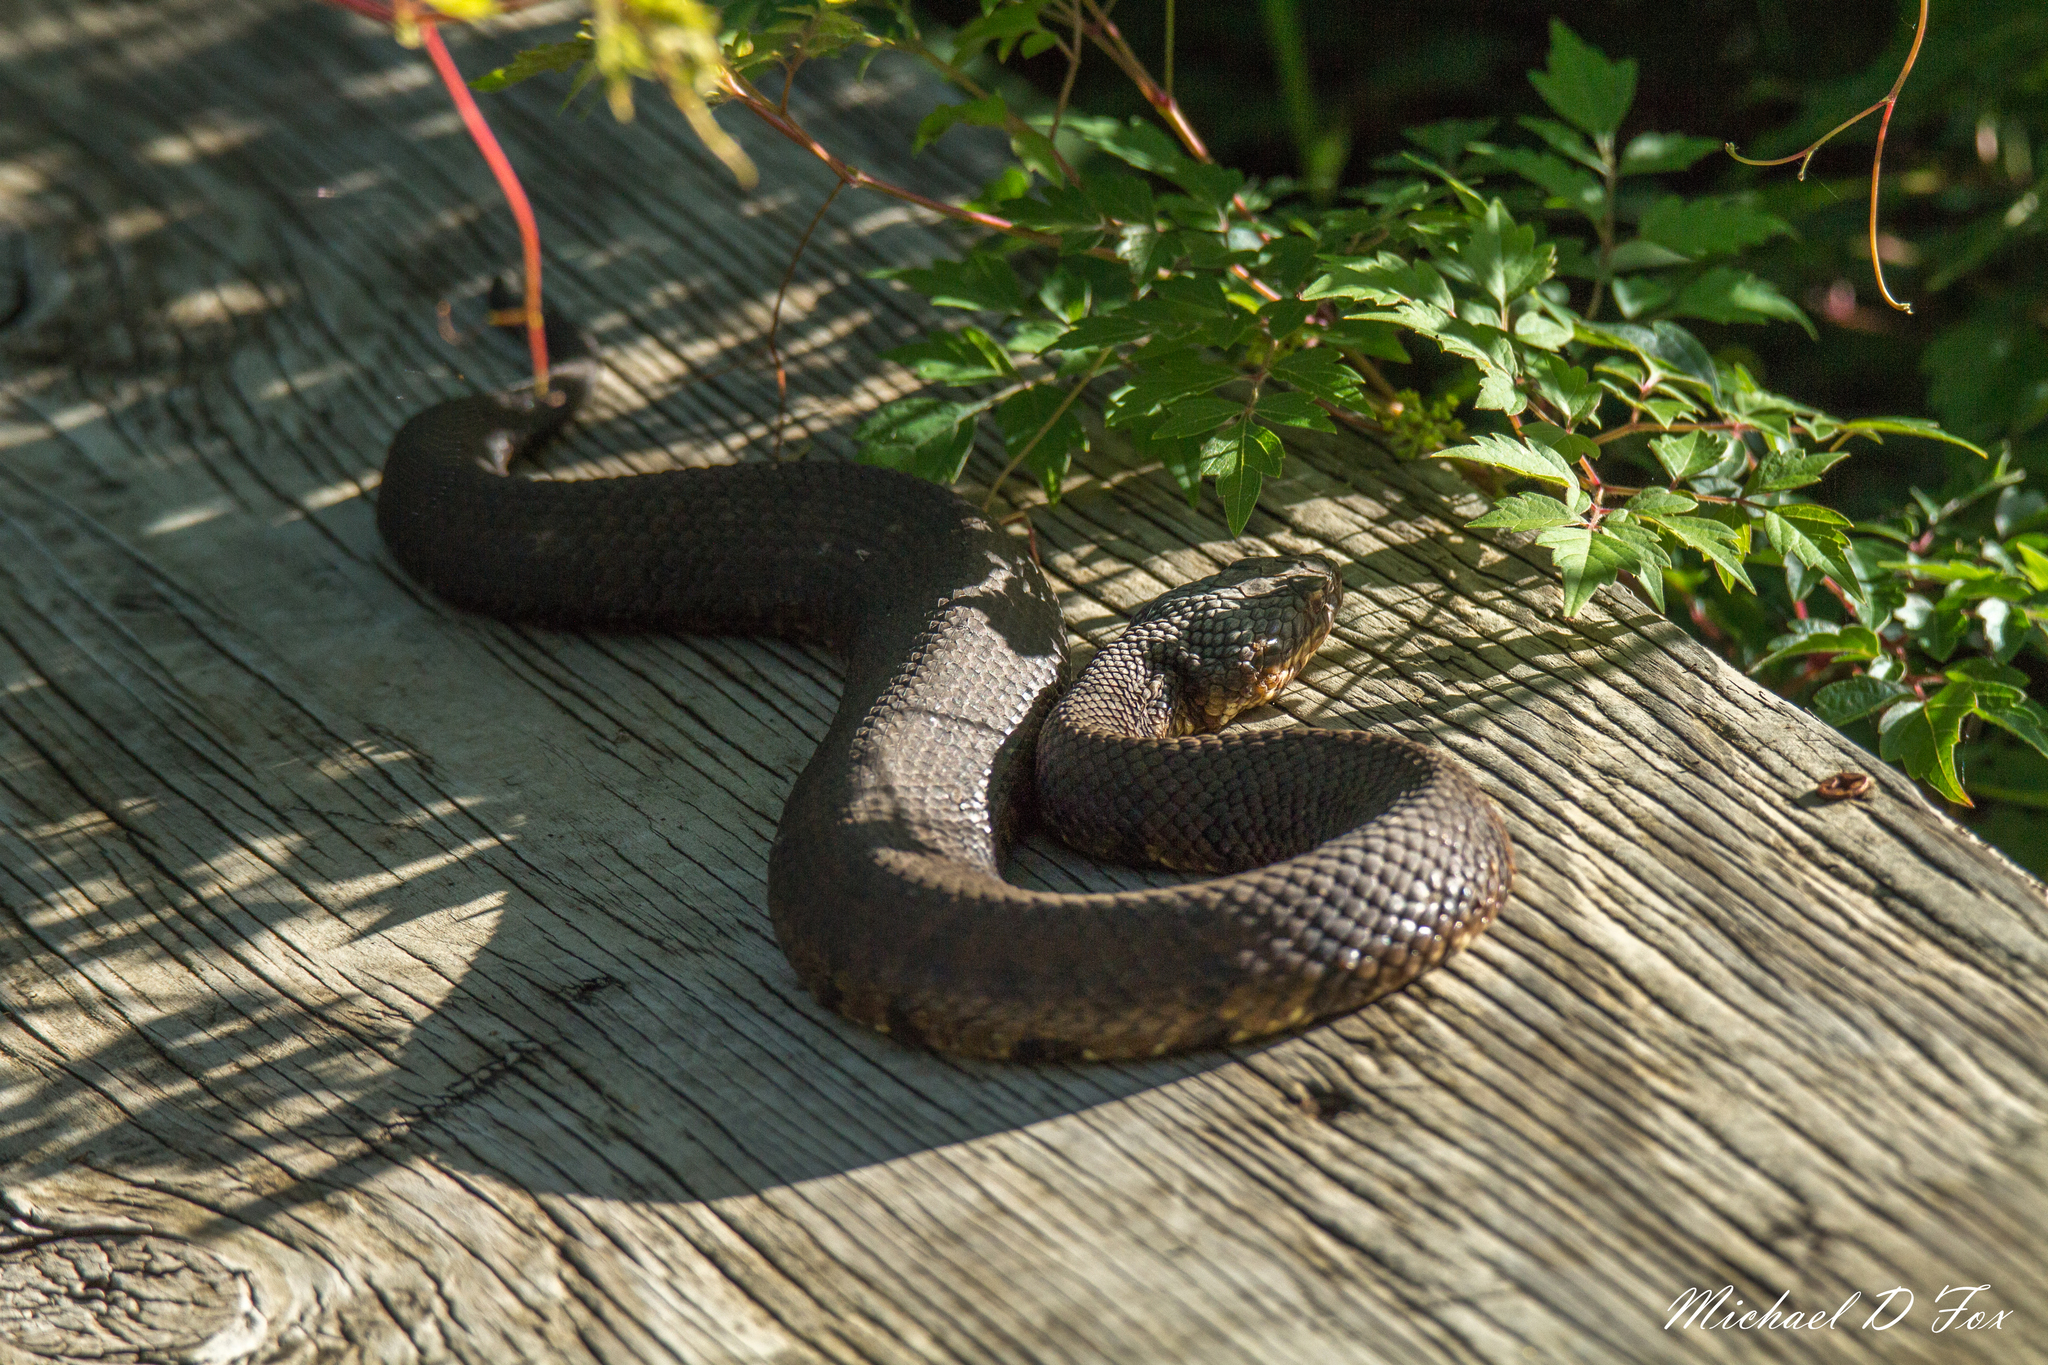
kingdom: Animalia
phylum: Chordata
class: Squamata
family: Viperidae
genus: Agkistrodon
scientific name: Agkistrodon piscivorus
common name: Cottonmouth
